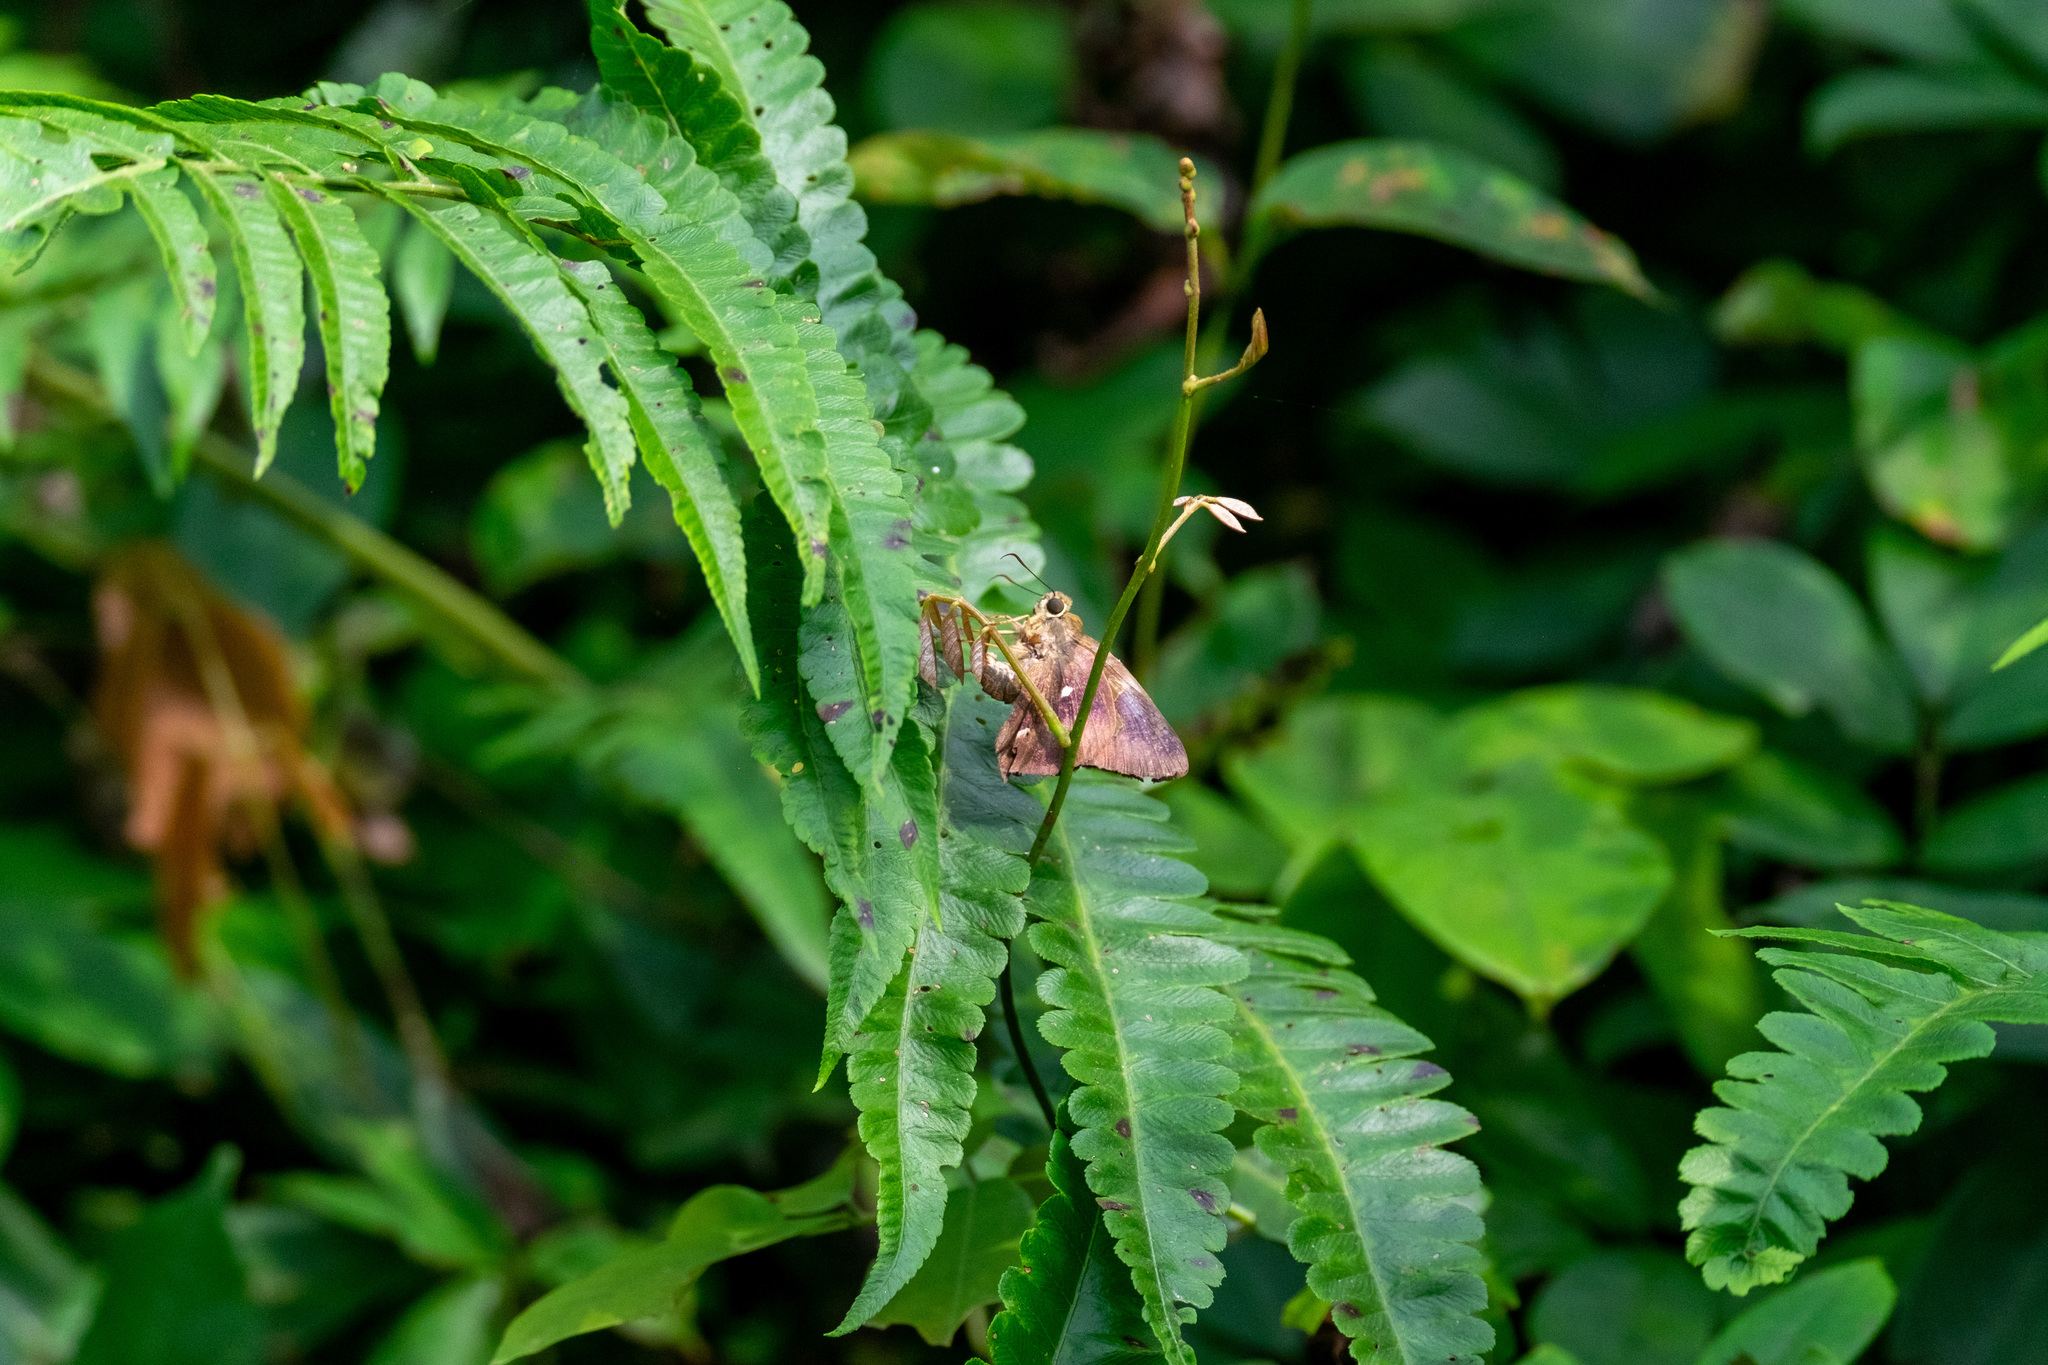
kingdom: Animalia
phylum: Arthropoda
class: Insecta
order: Lepidoptera
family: Hesperiidae
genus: Hasora
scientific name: Hasora badra
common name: Common awl
